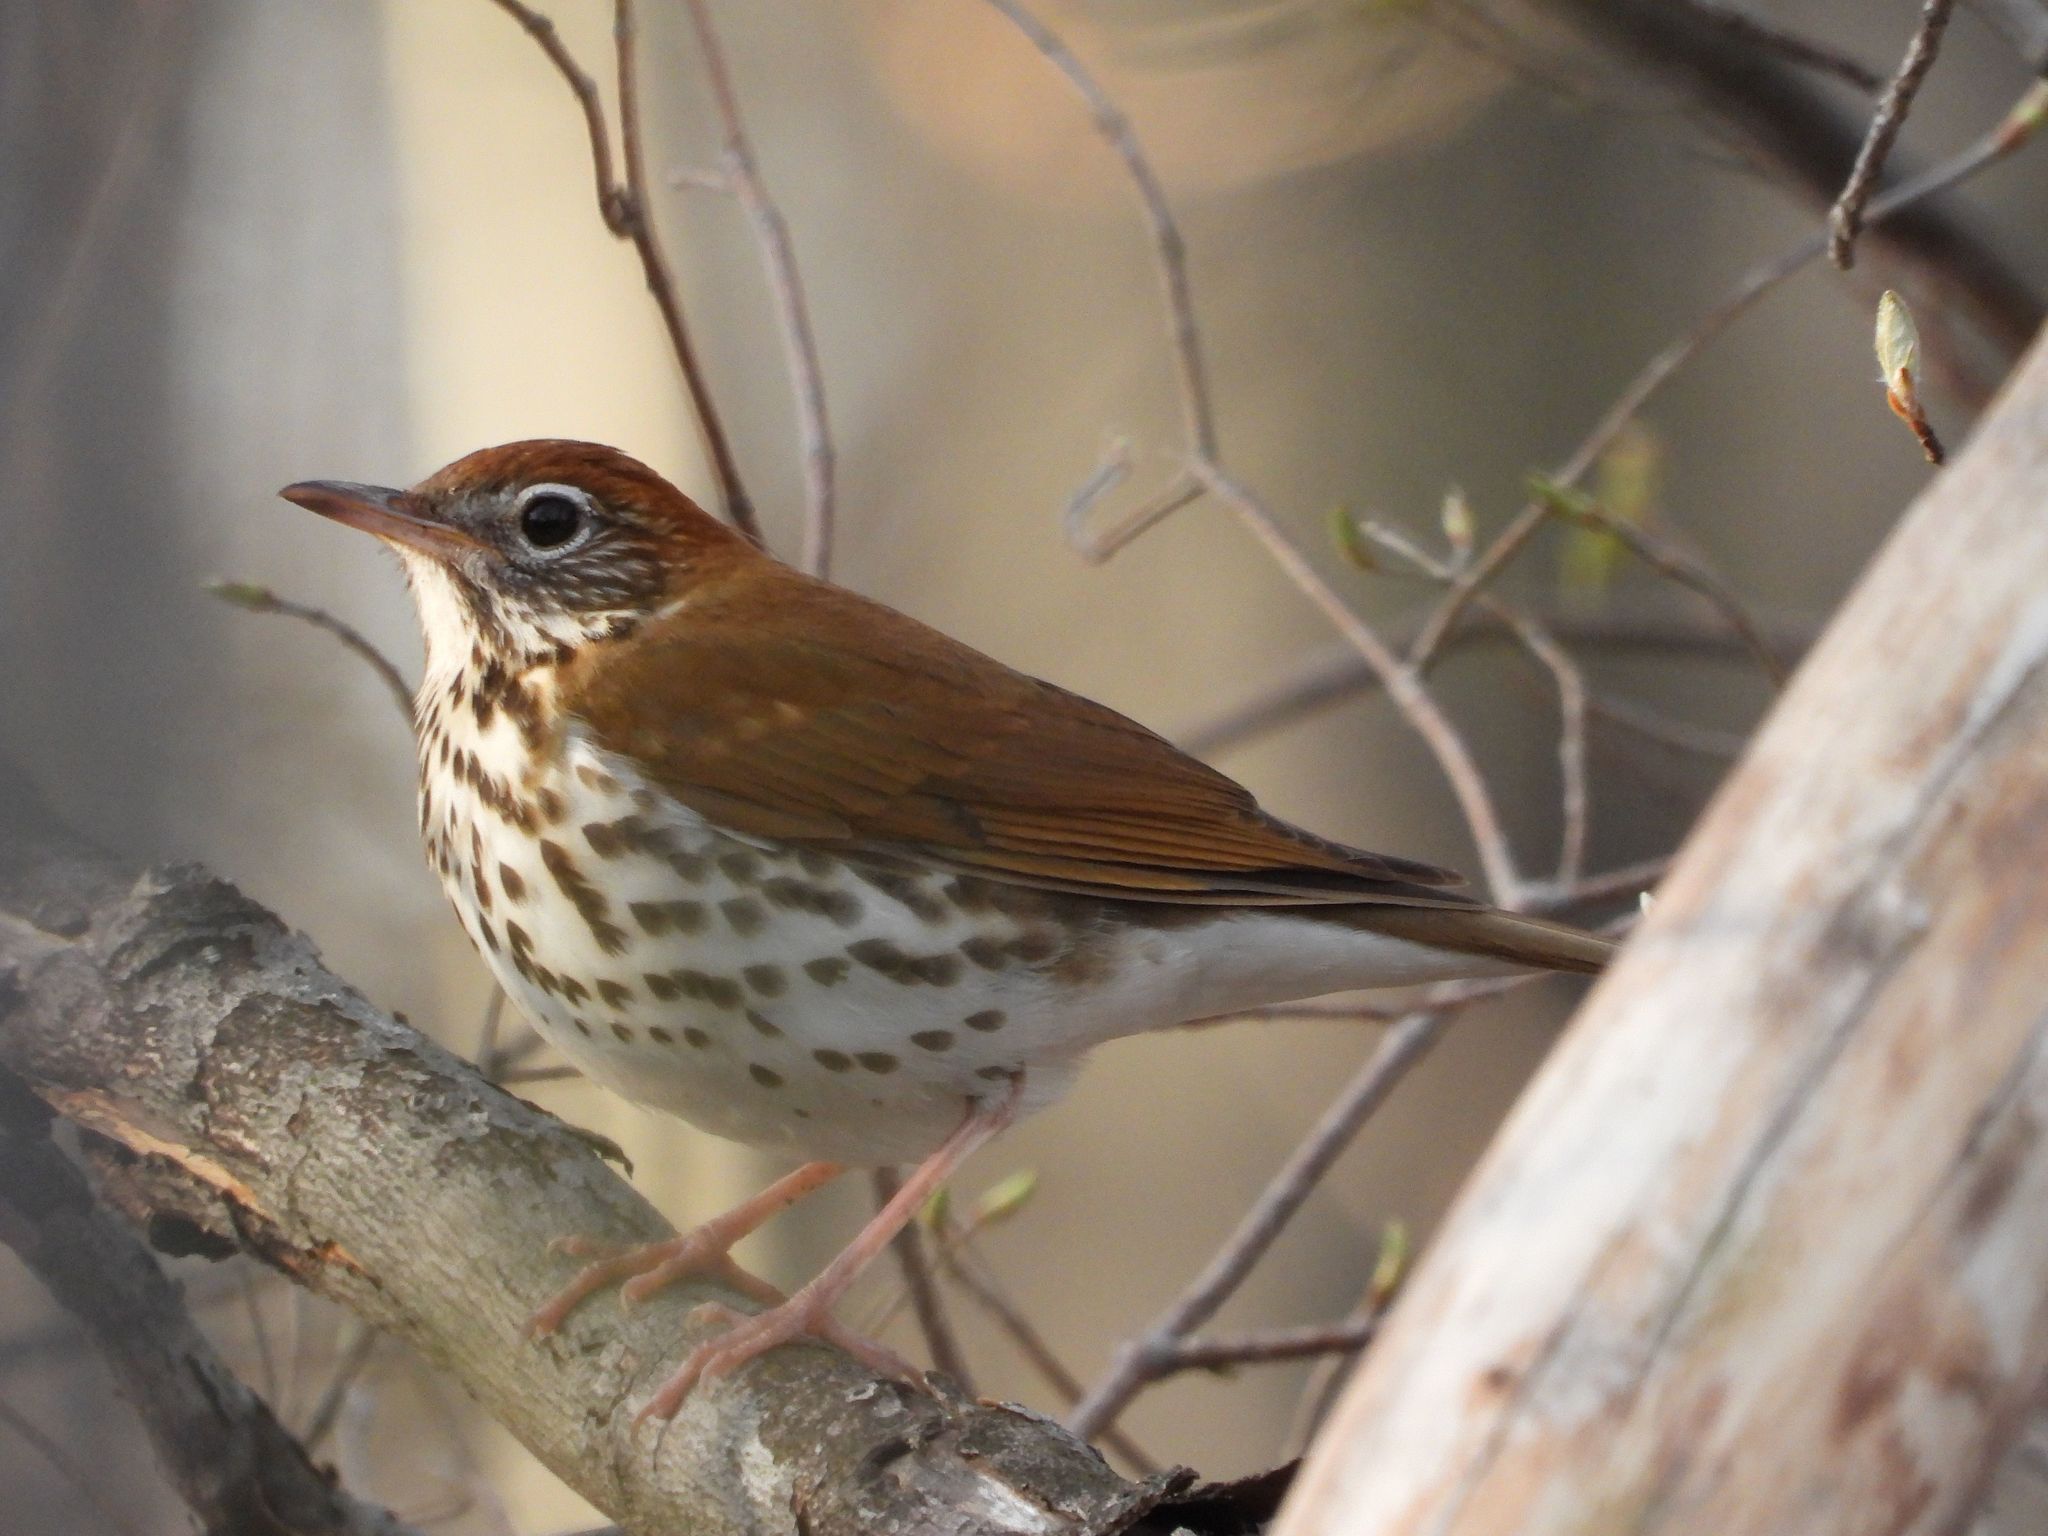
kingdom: Animalia
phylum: Chordata
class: Aves
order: Passeriformes
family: Turdidae
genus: Hylocichla
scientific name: Hylocichla mustelina
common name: Wood thrush
